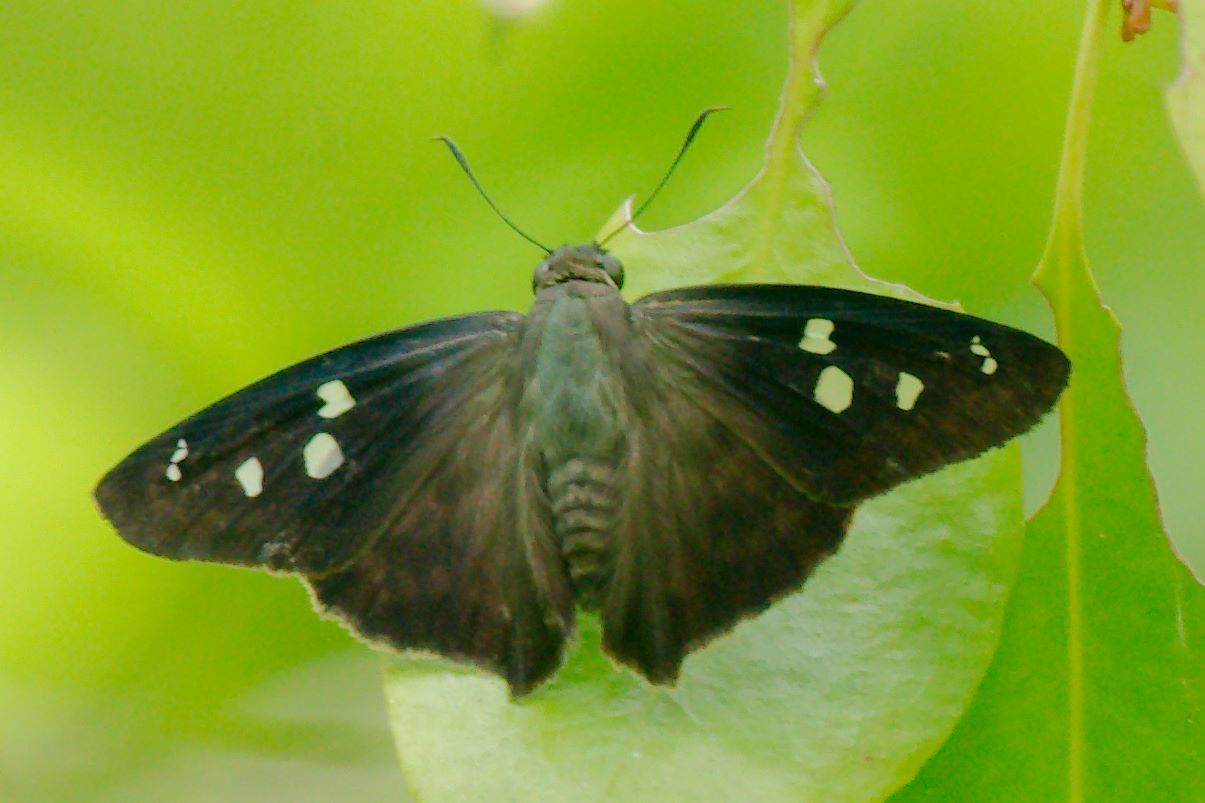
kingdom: Animalia
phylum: Arthropoda
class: Insecta
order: Lepidoptera
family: Hesperiidae
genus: Polygonus
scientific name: Polygonus leo
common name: Hammoch skipper
